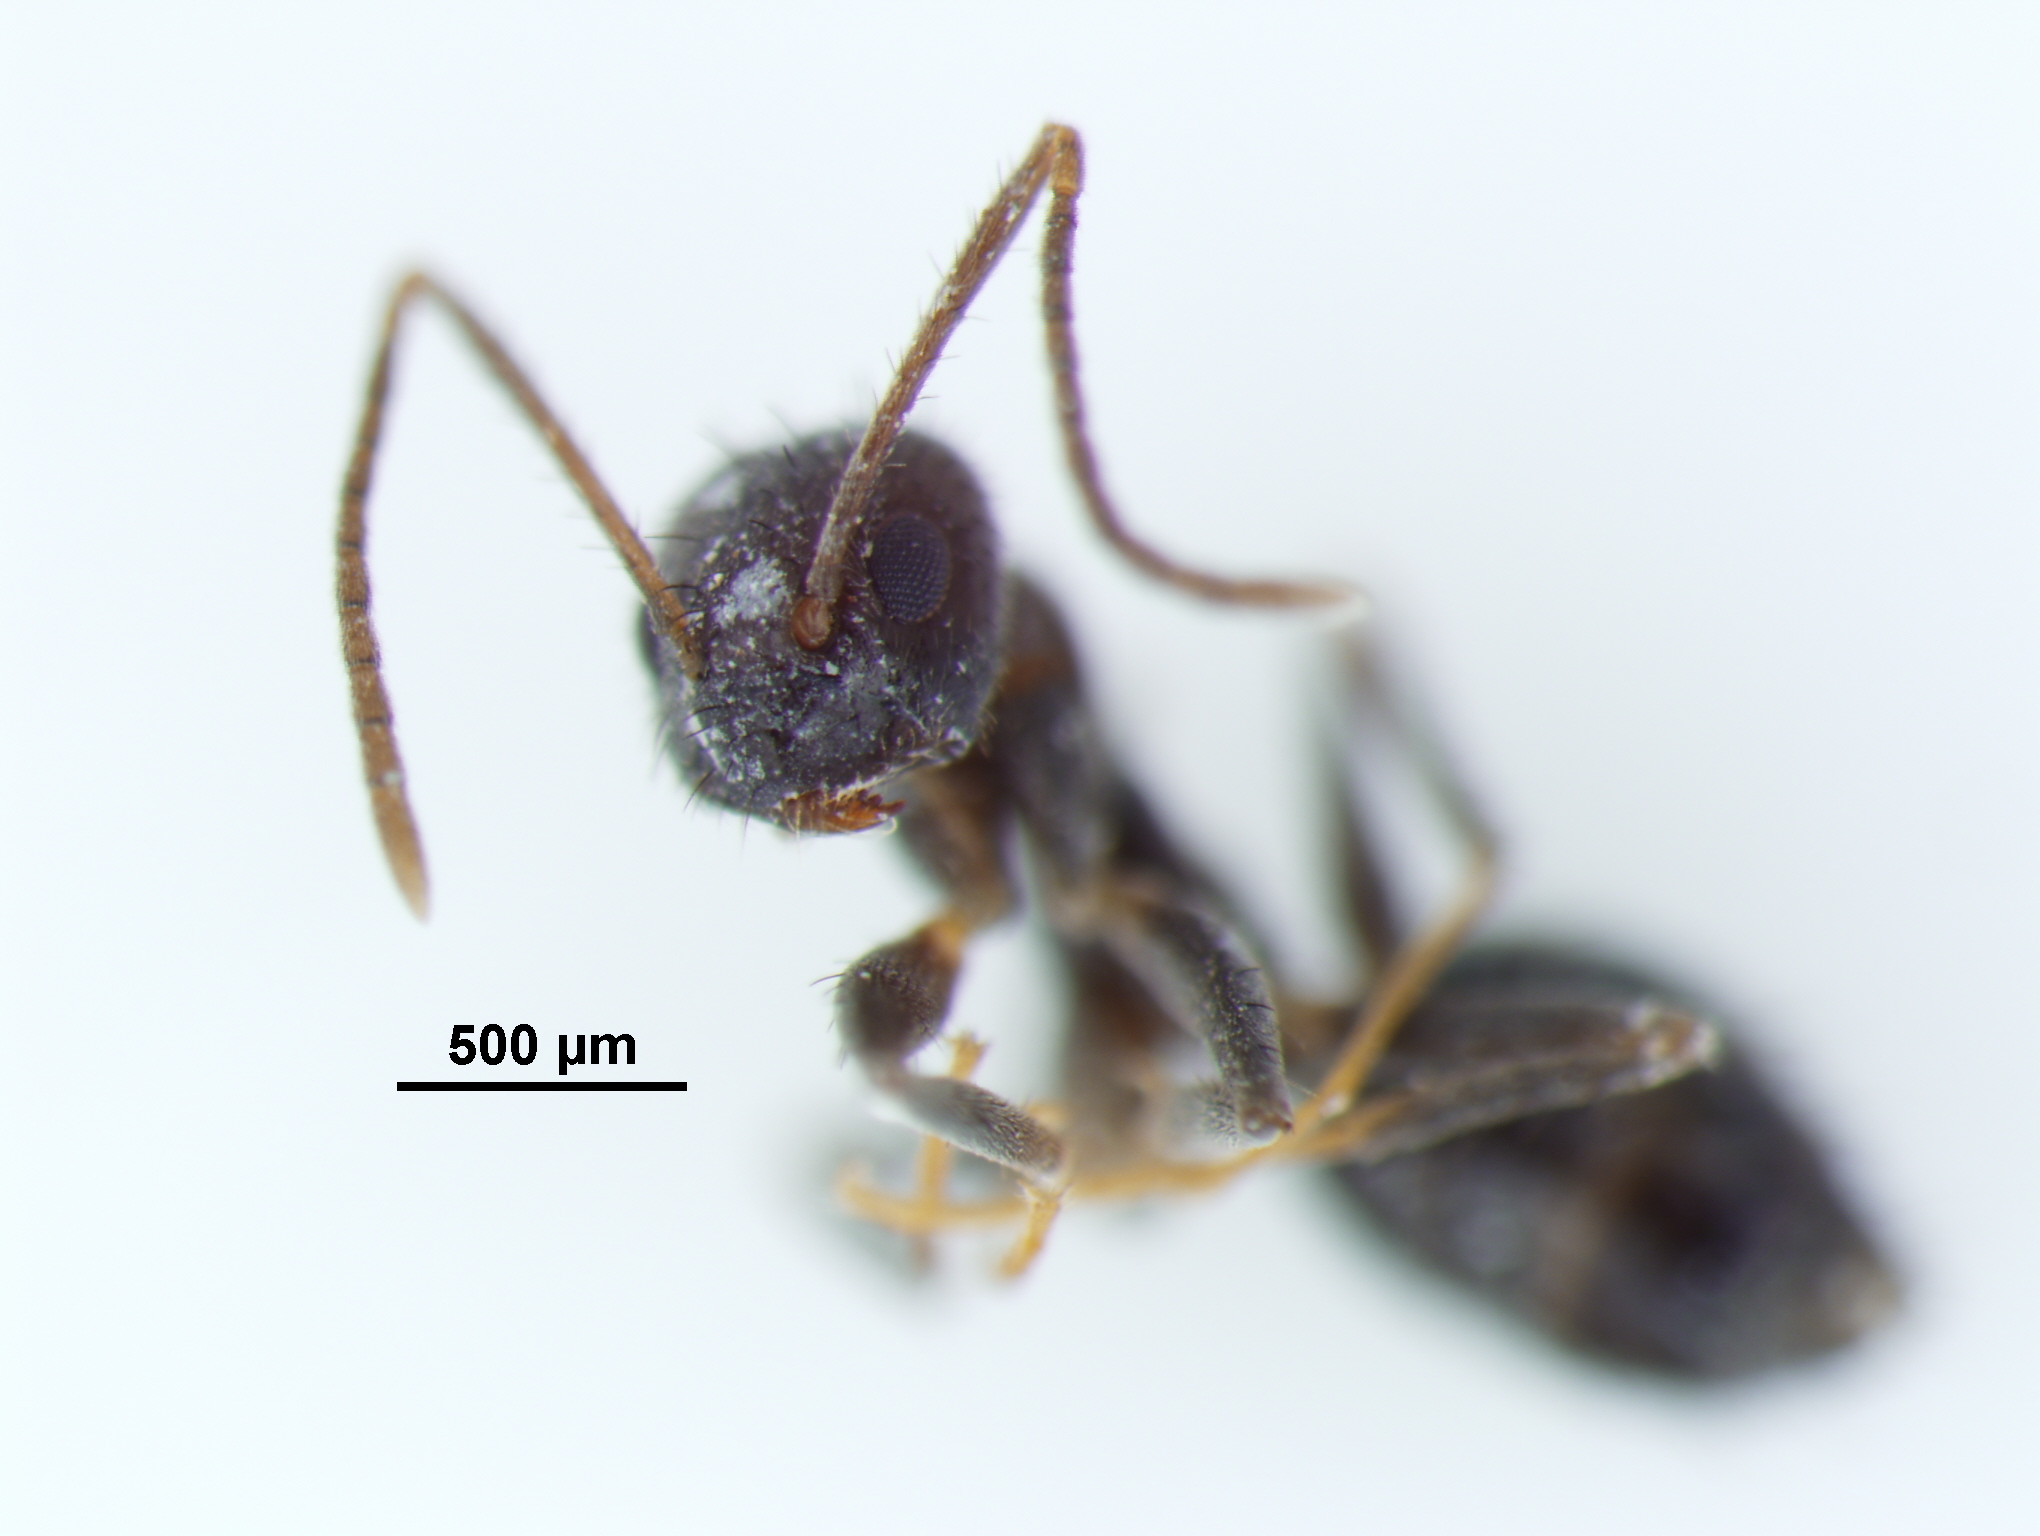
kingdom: Animalia
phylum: Arthropoda
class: Insecta
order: Hymenoptera
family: Formicidae
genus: Paratrechina
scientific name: Paratrechina bourbonica
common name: Ant
